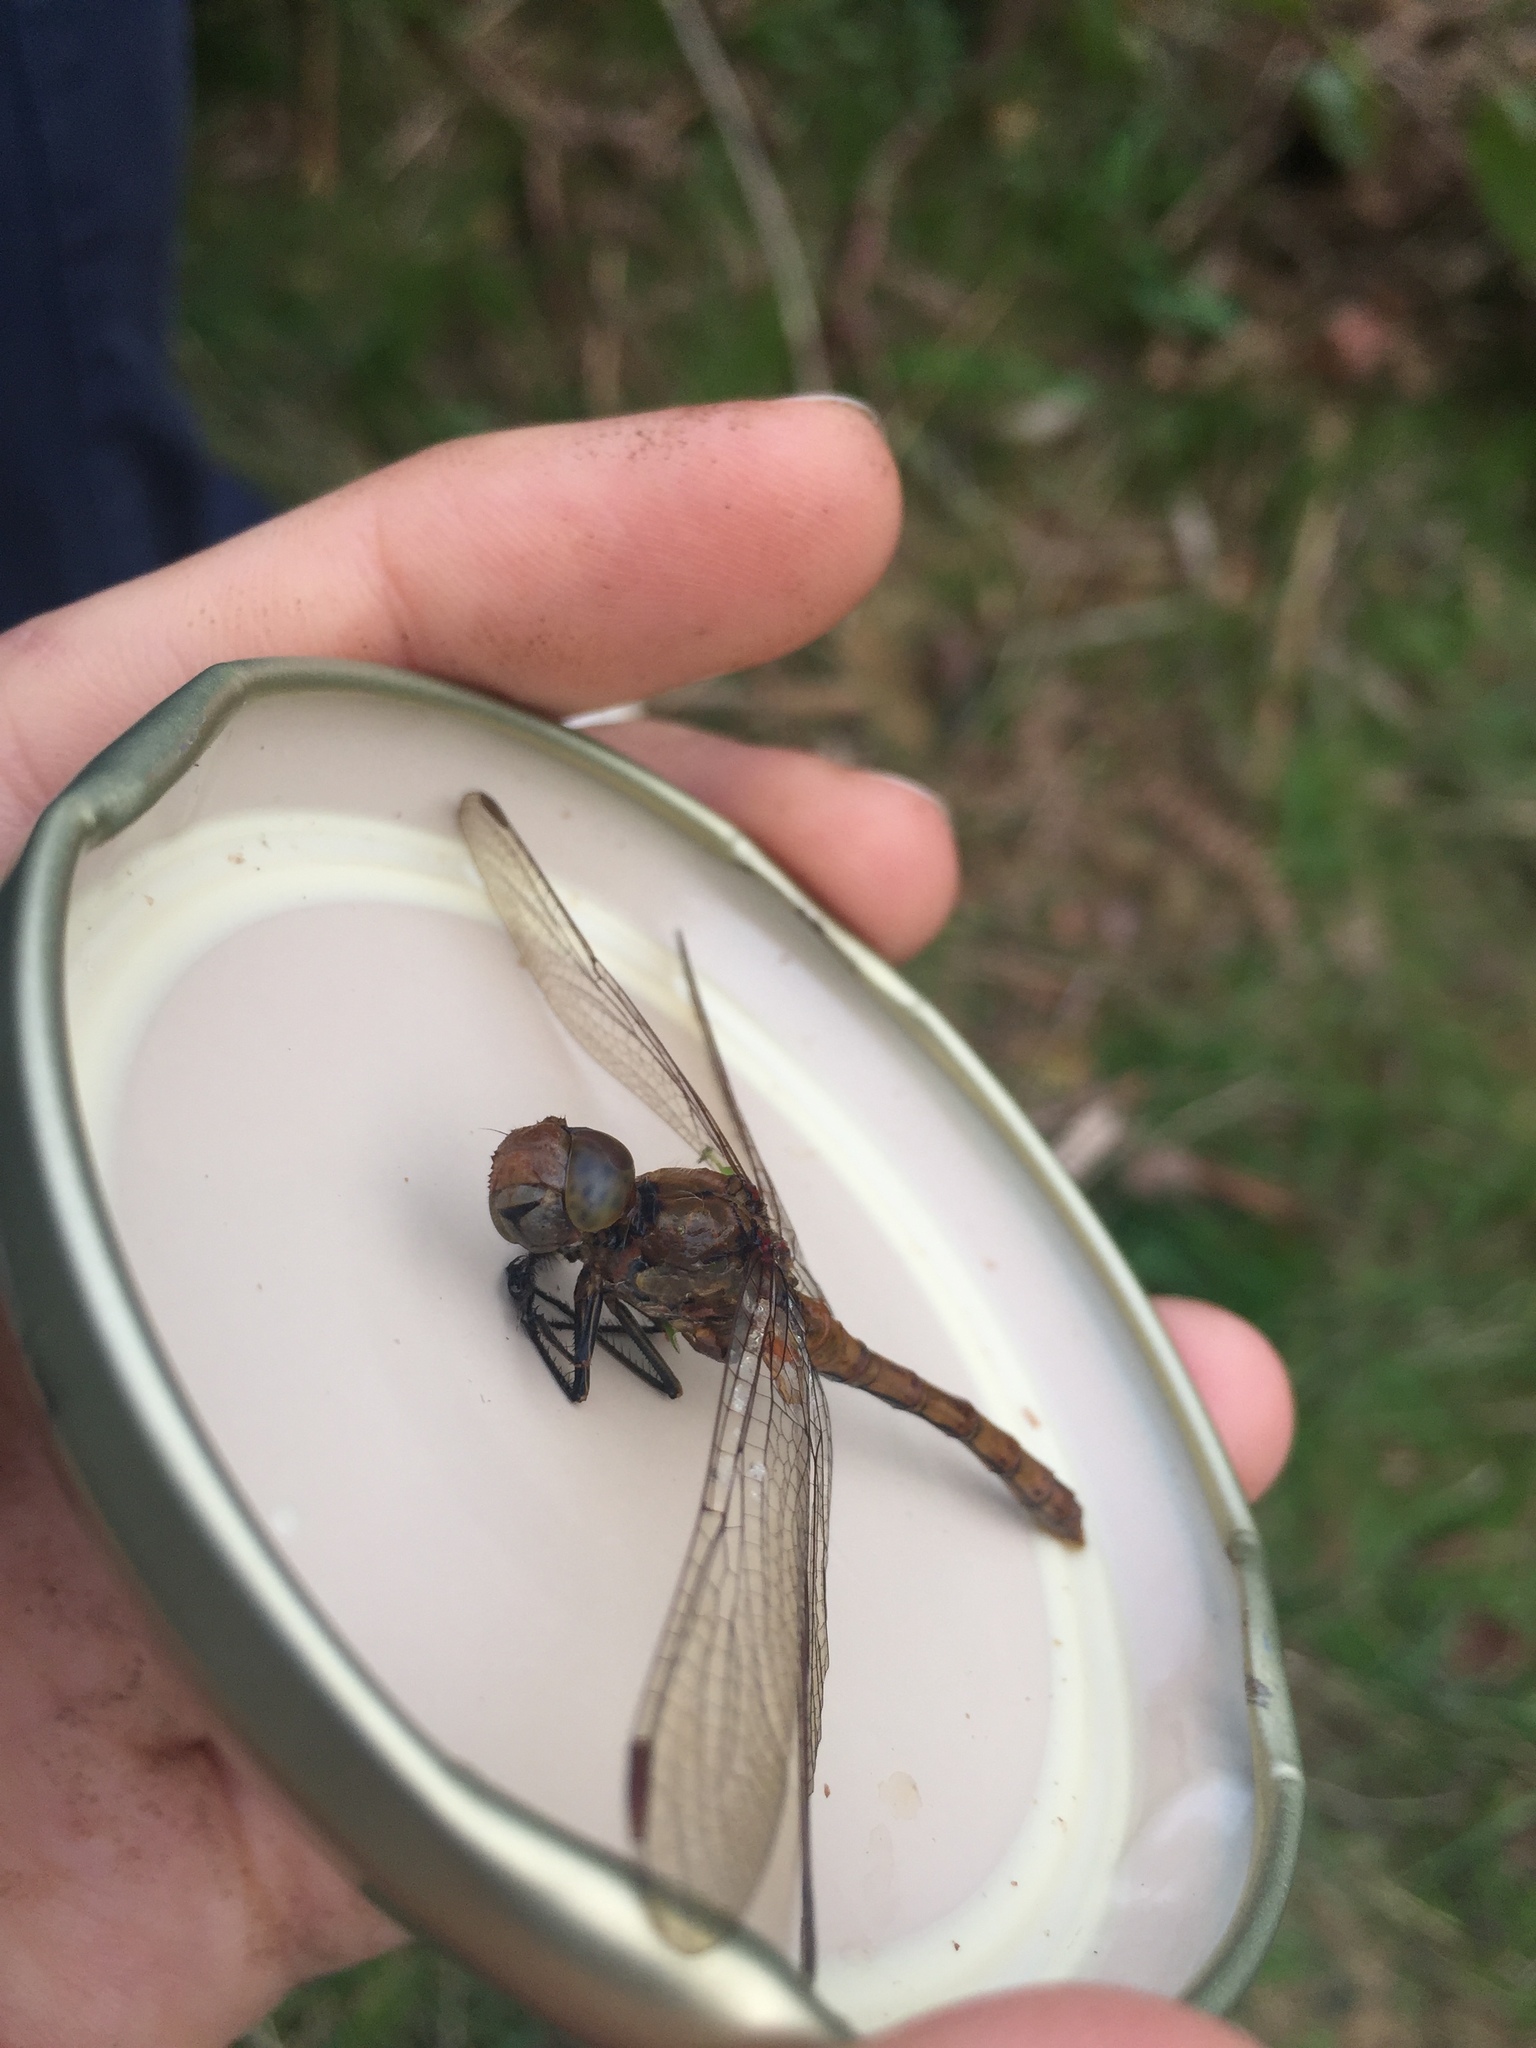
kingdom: Animalia
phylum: Arthropoda
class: Insecta
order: Odonata
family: Libellulidae
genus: Sympetrum
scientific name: Sympetrum striolatum
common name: Common darter
